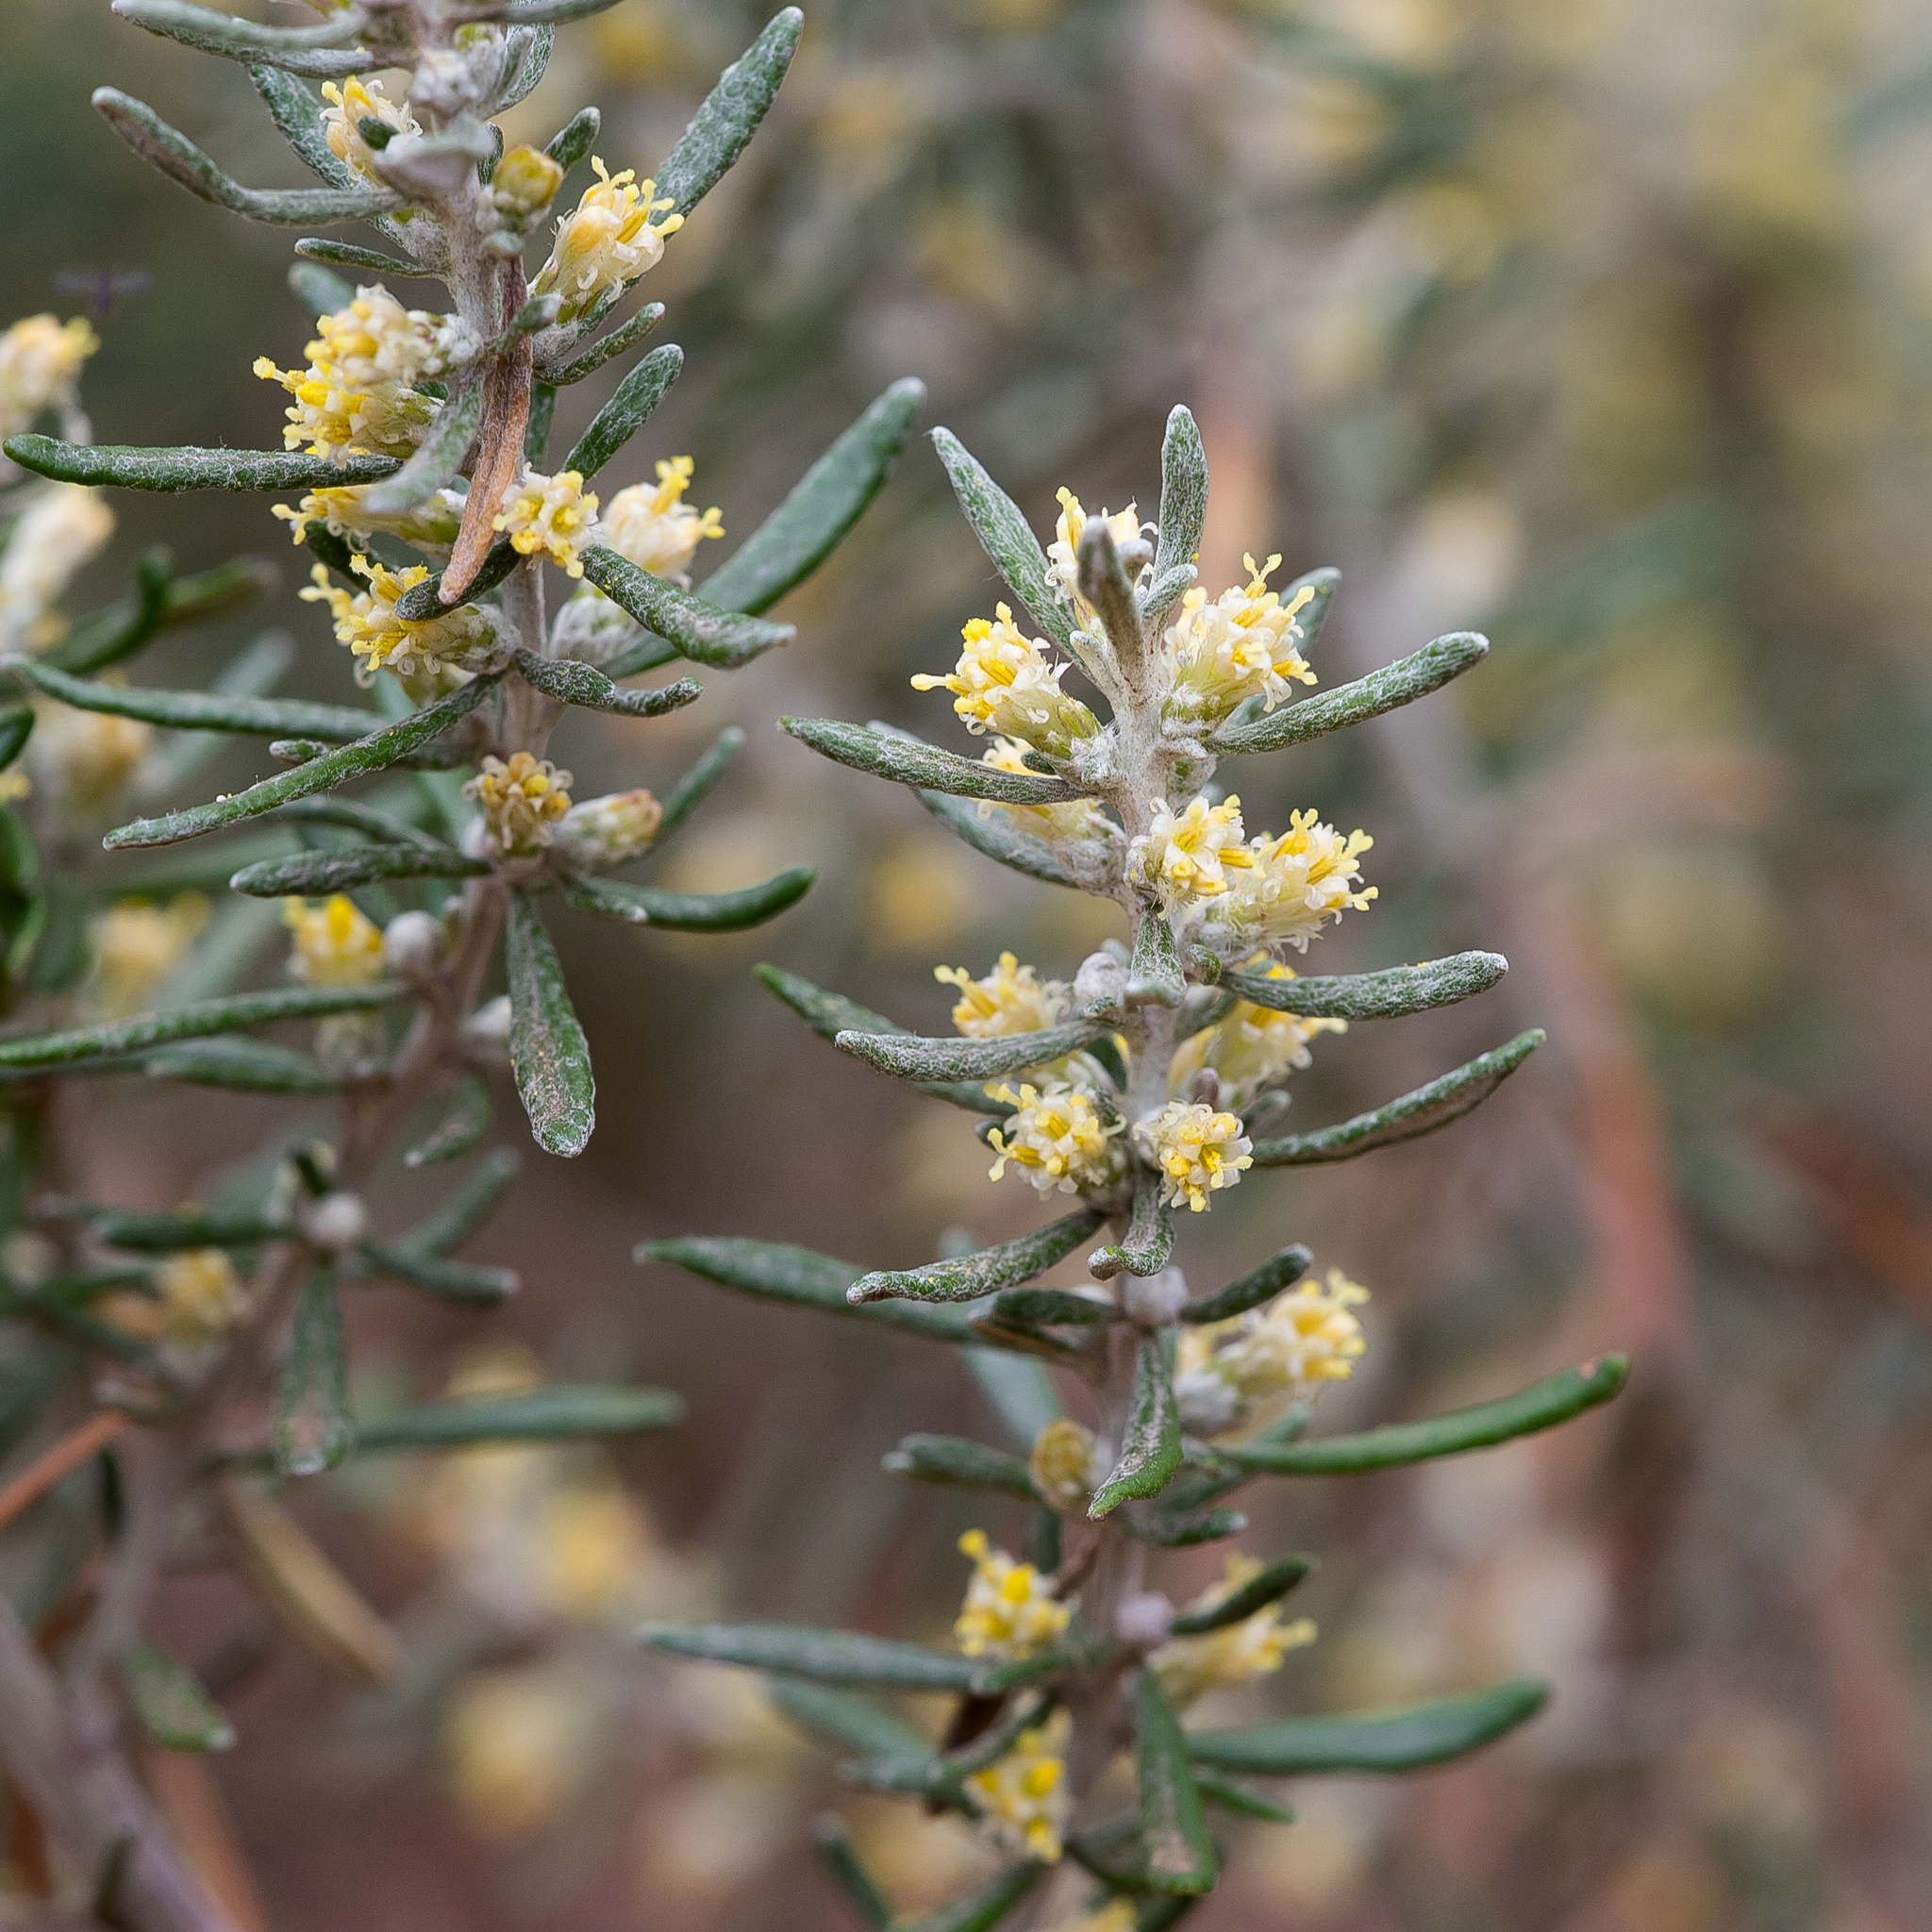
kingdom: Plantae
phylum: Tracheophyta
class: Magnoliopsida
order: Asterales
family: Asteraceae
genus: Olearia
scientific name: Olearia axillaris
